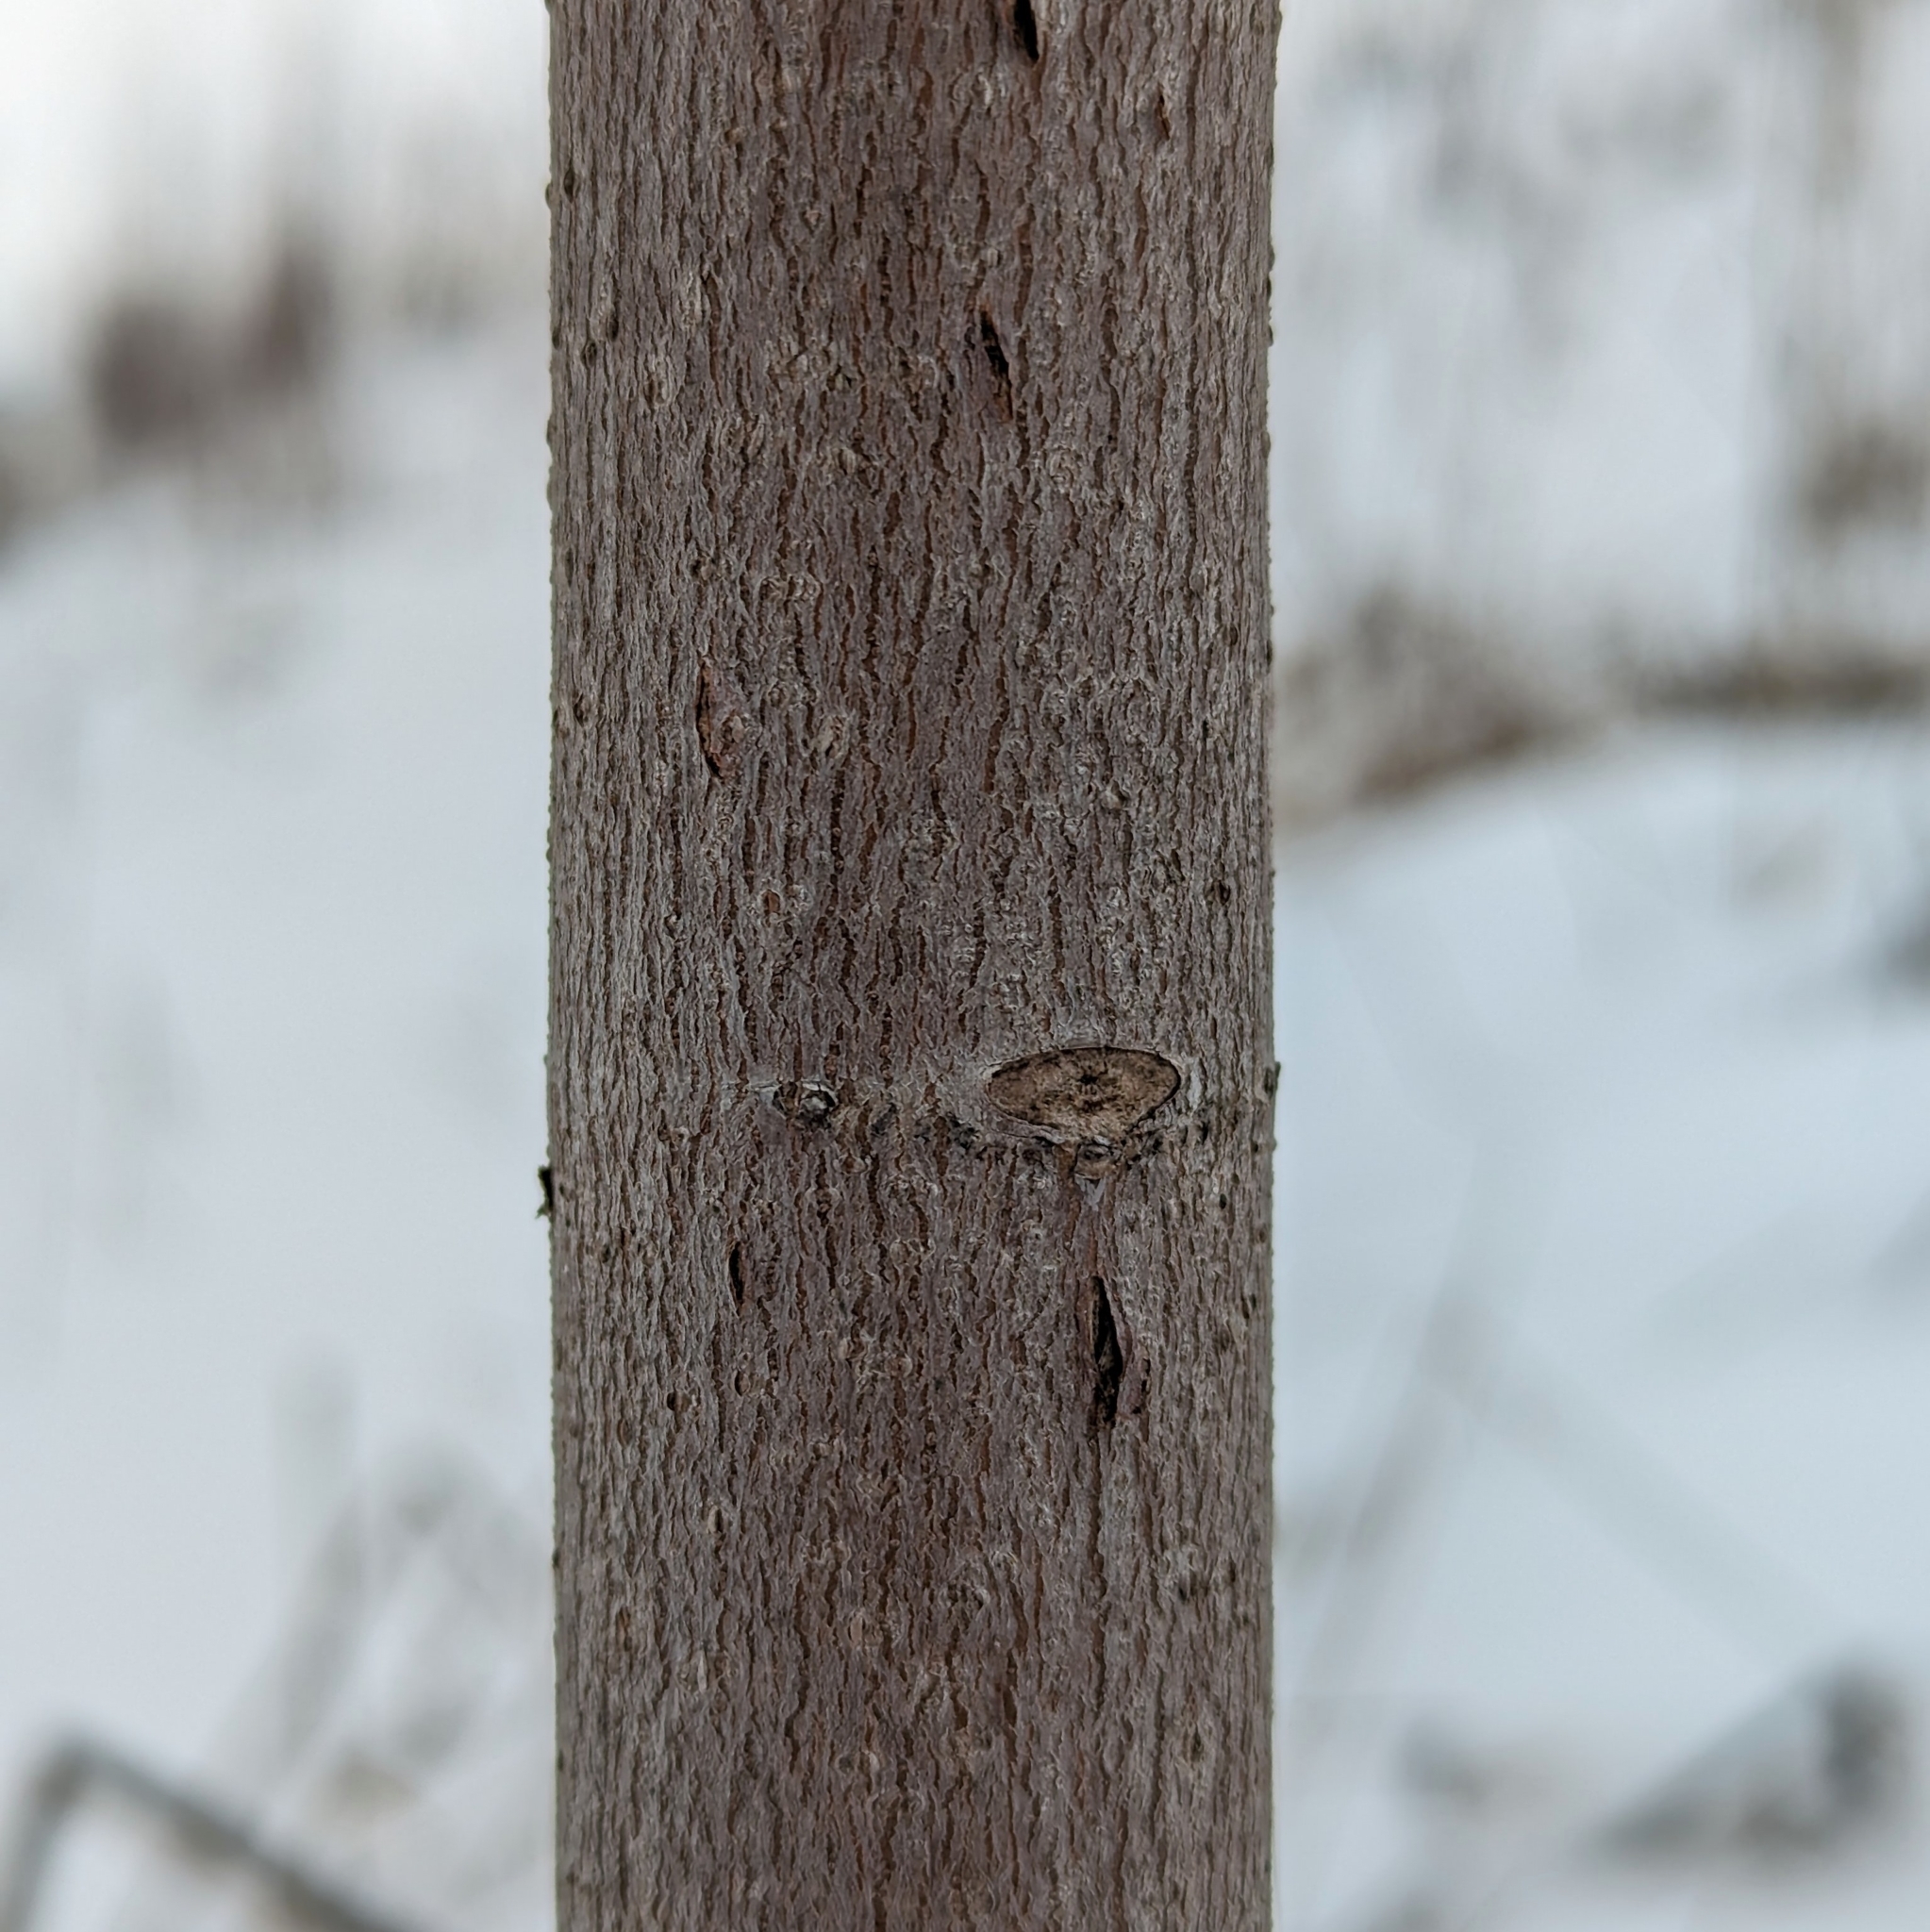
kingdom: Plantae
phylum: Tracheophyta
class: Magnoliopsida
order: Sapindales
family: Sapindaceae
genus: Acer
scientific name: Acer rubrum
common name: Red maple
